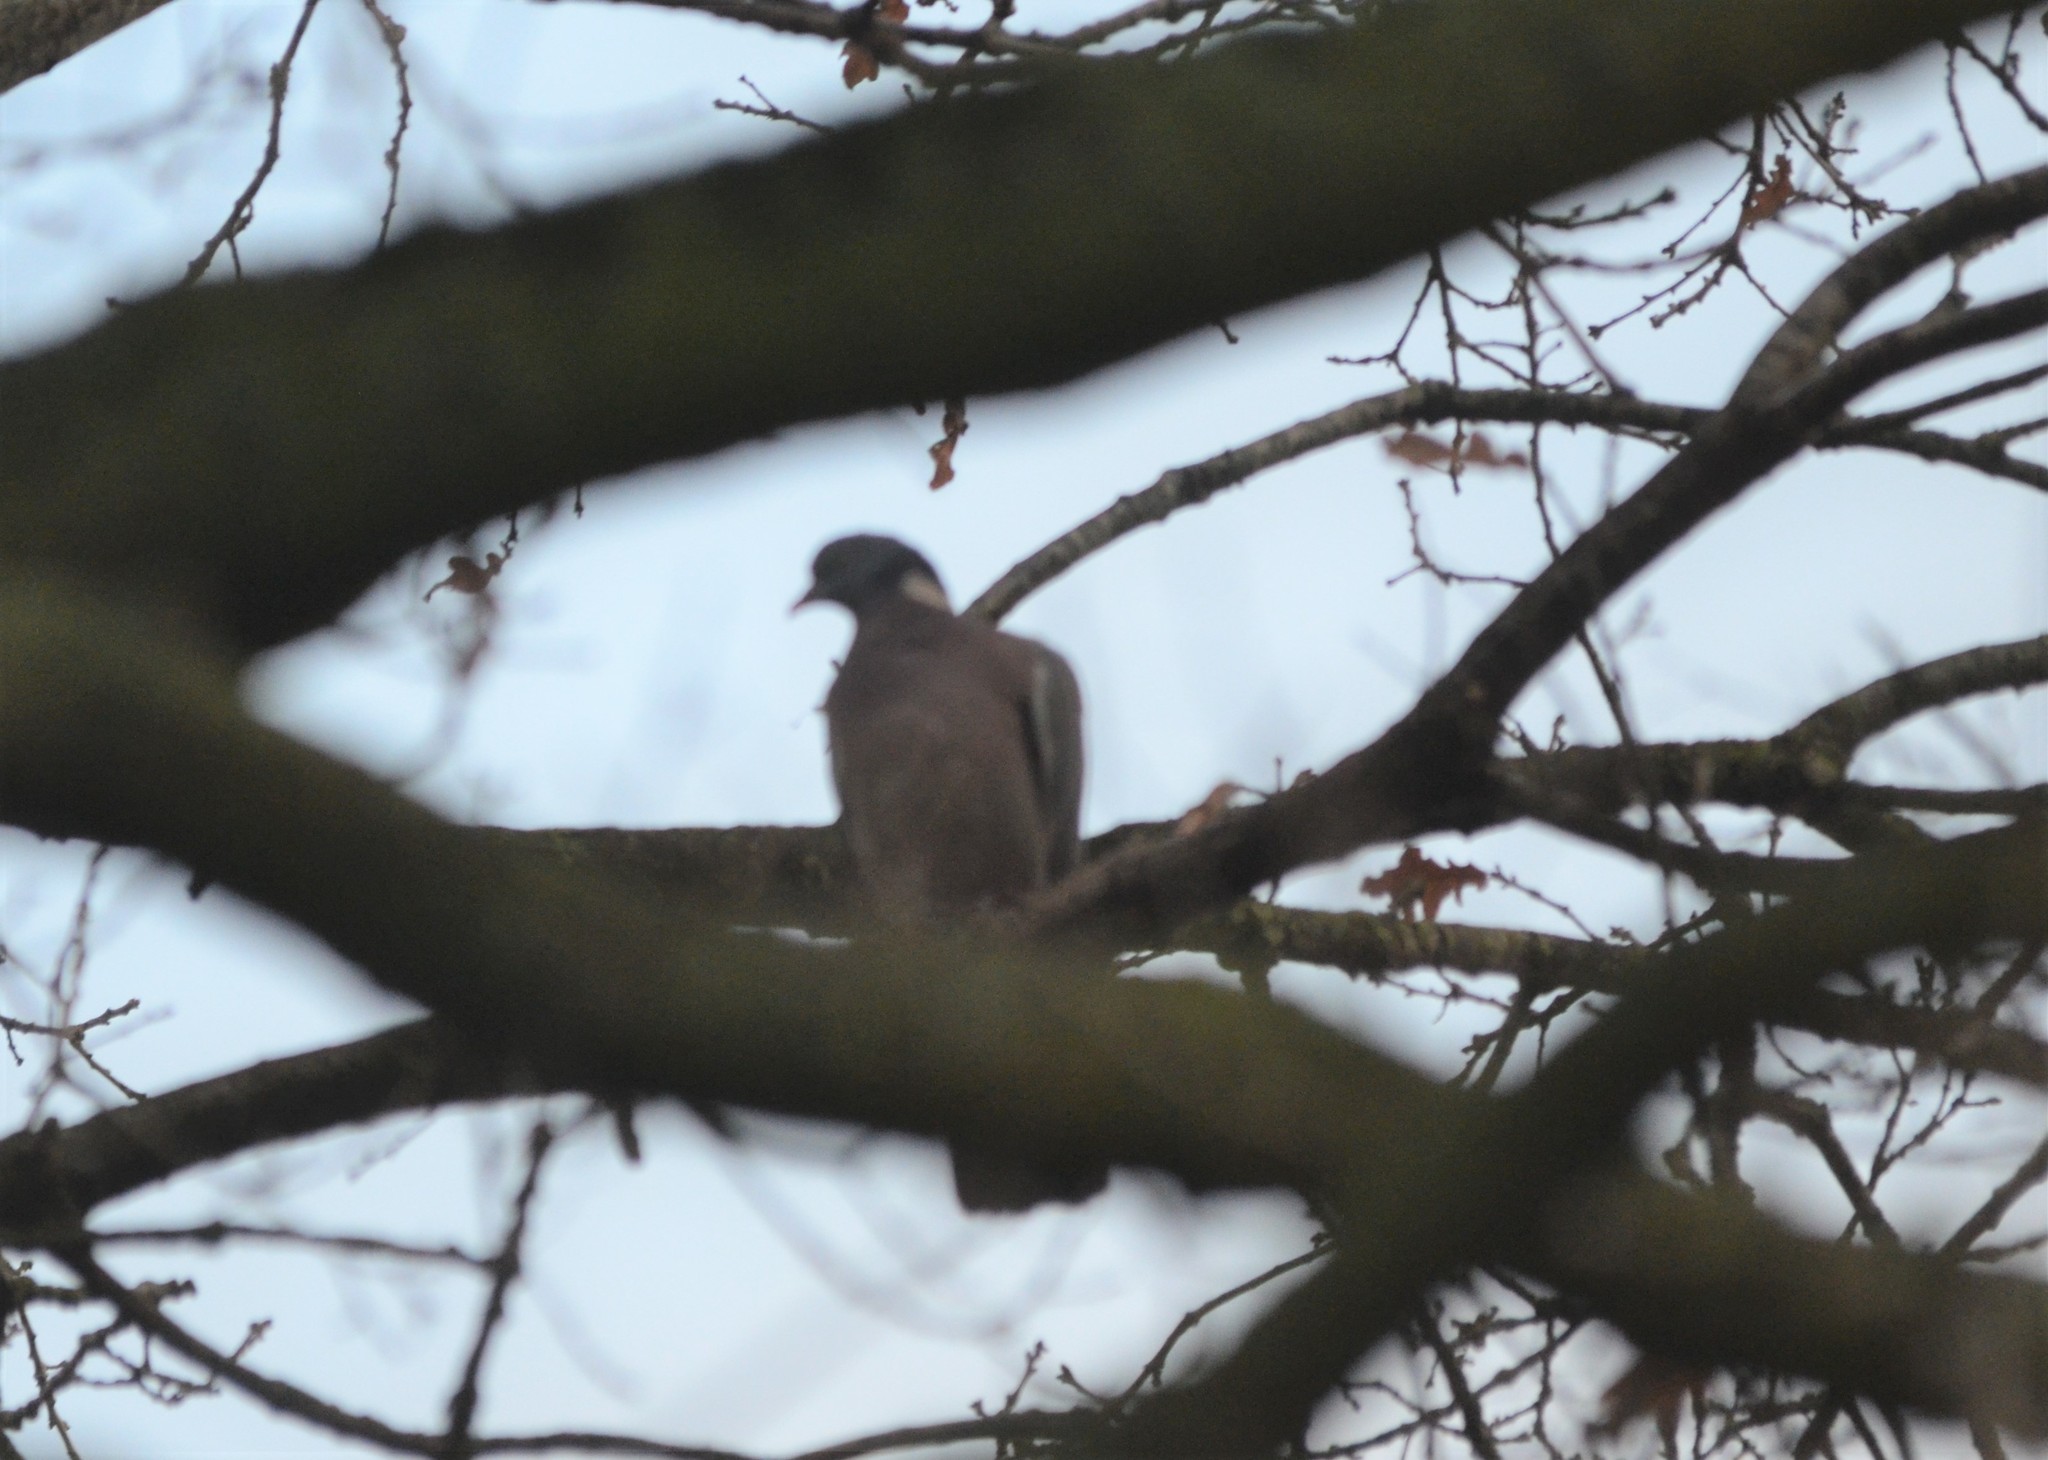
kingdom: Animalia
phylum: Chordata
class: Aves
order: Columbiformes
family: Columbidae
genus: Columba
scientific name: Columba palumbus
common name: Common wood pigeon
